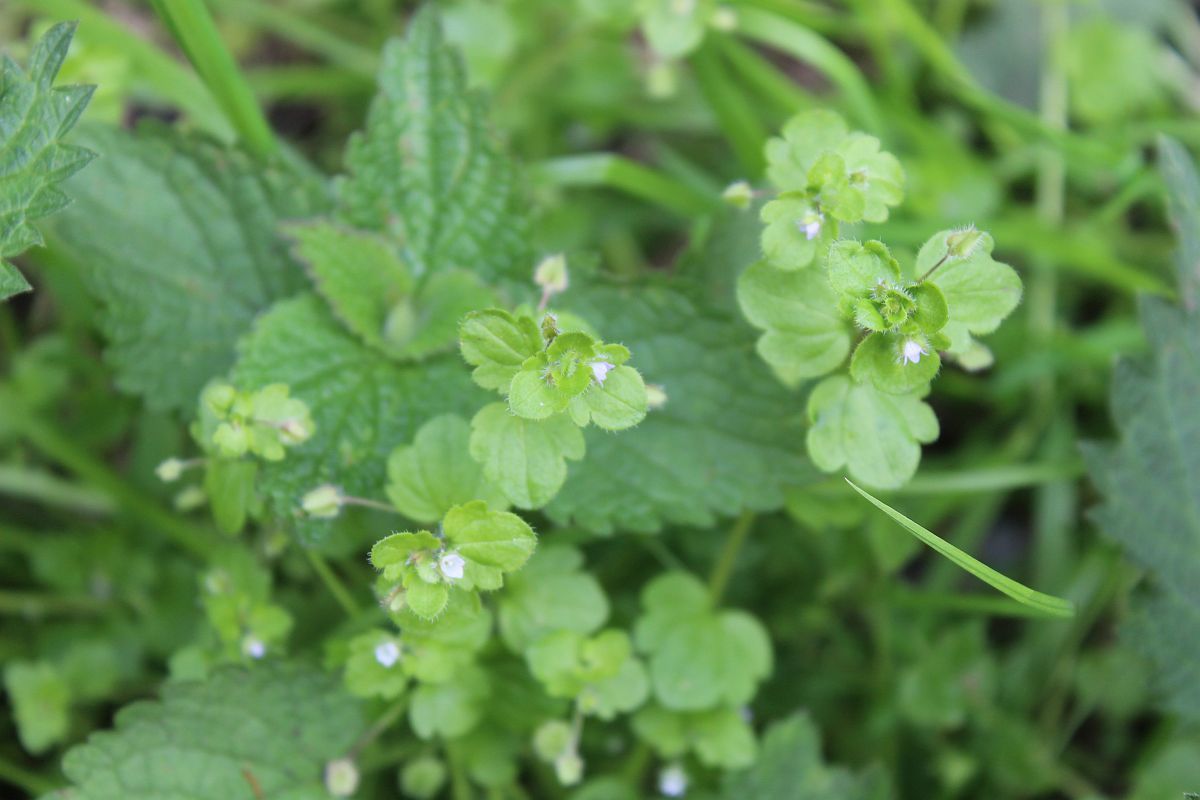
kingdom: Plantae
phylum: Tracheophyta
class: Magnoliopsida
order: Lamiales
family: Plantaginaceae
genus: Veronica
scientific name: Veronica sublobata
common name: False ivy-leaved speedwell
